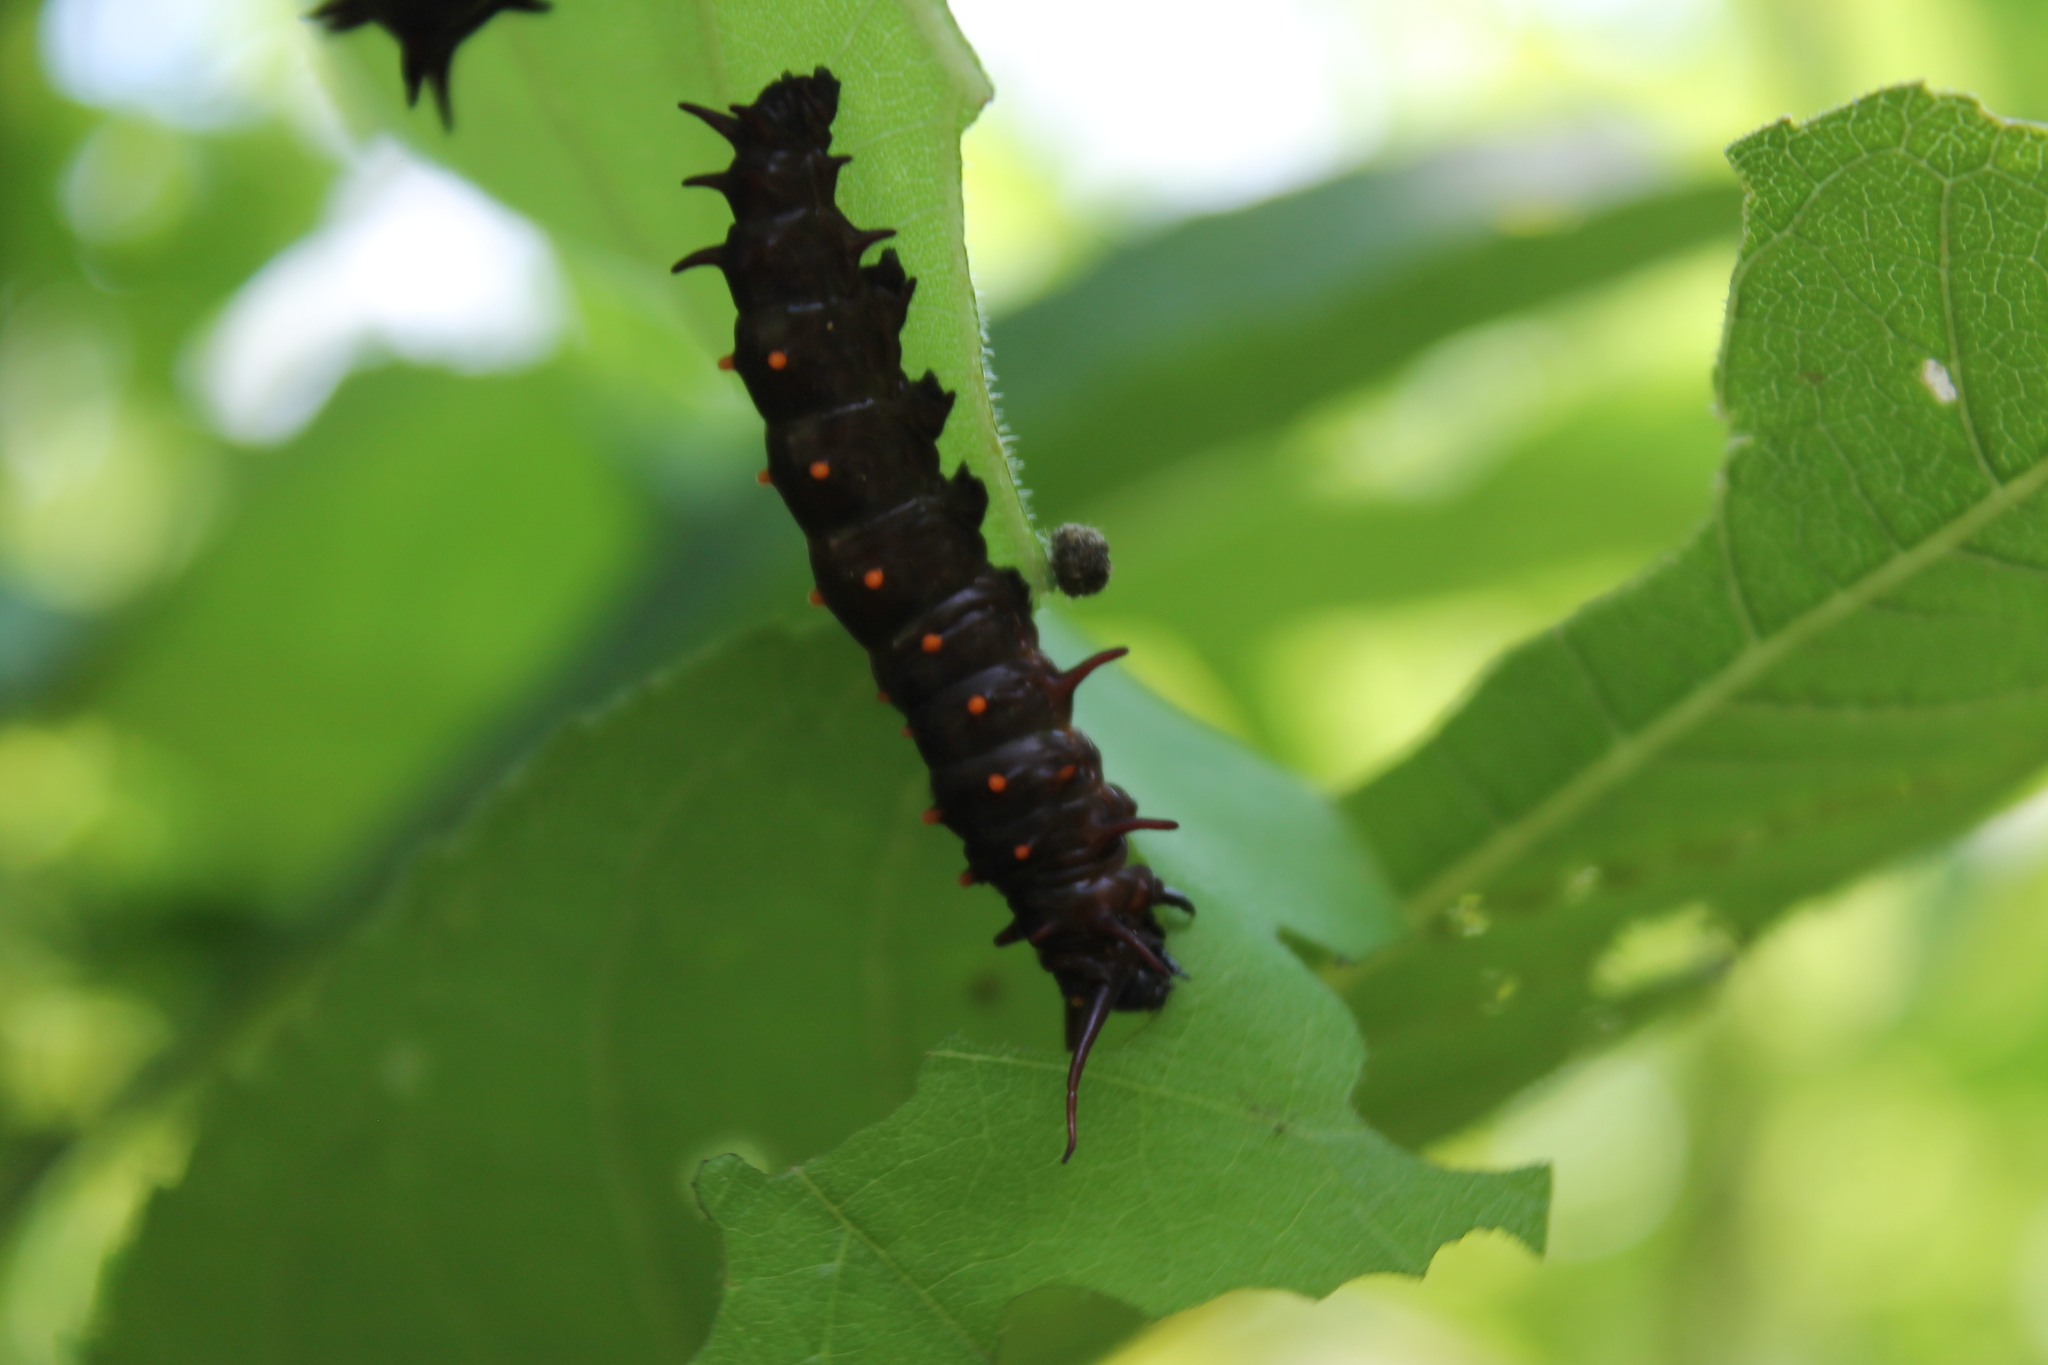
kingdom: Animalia
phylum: Arthropoda
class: Insecta
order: Lepidoptera
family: Papilionidae
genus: Battus
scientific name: Battus philenor
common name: Pipevine swallowtail
